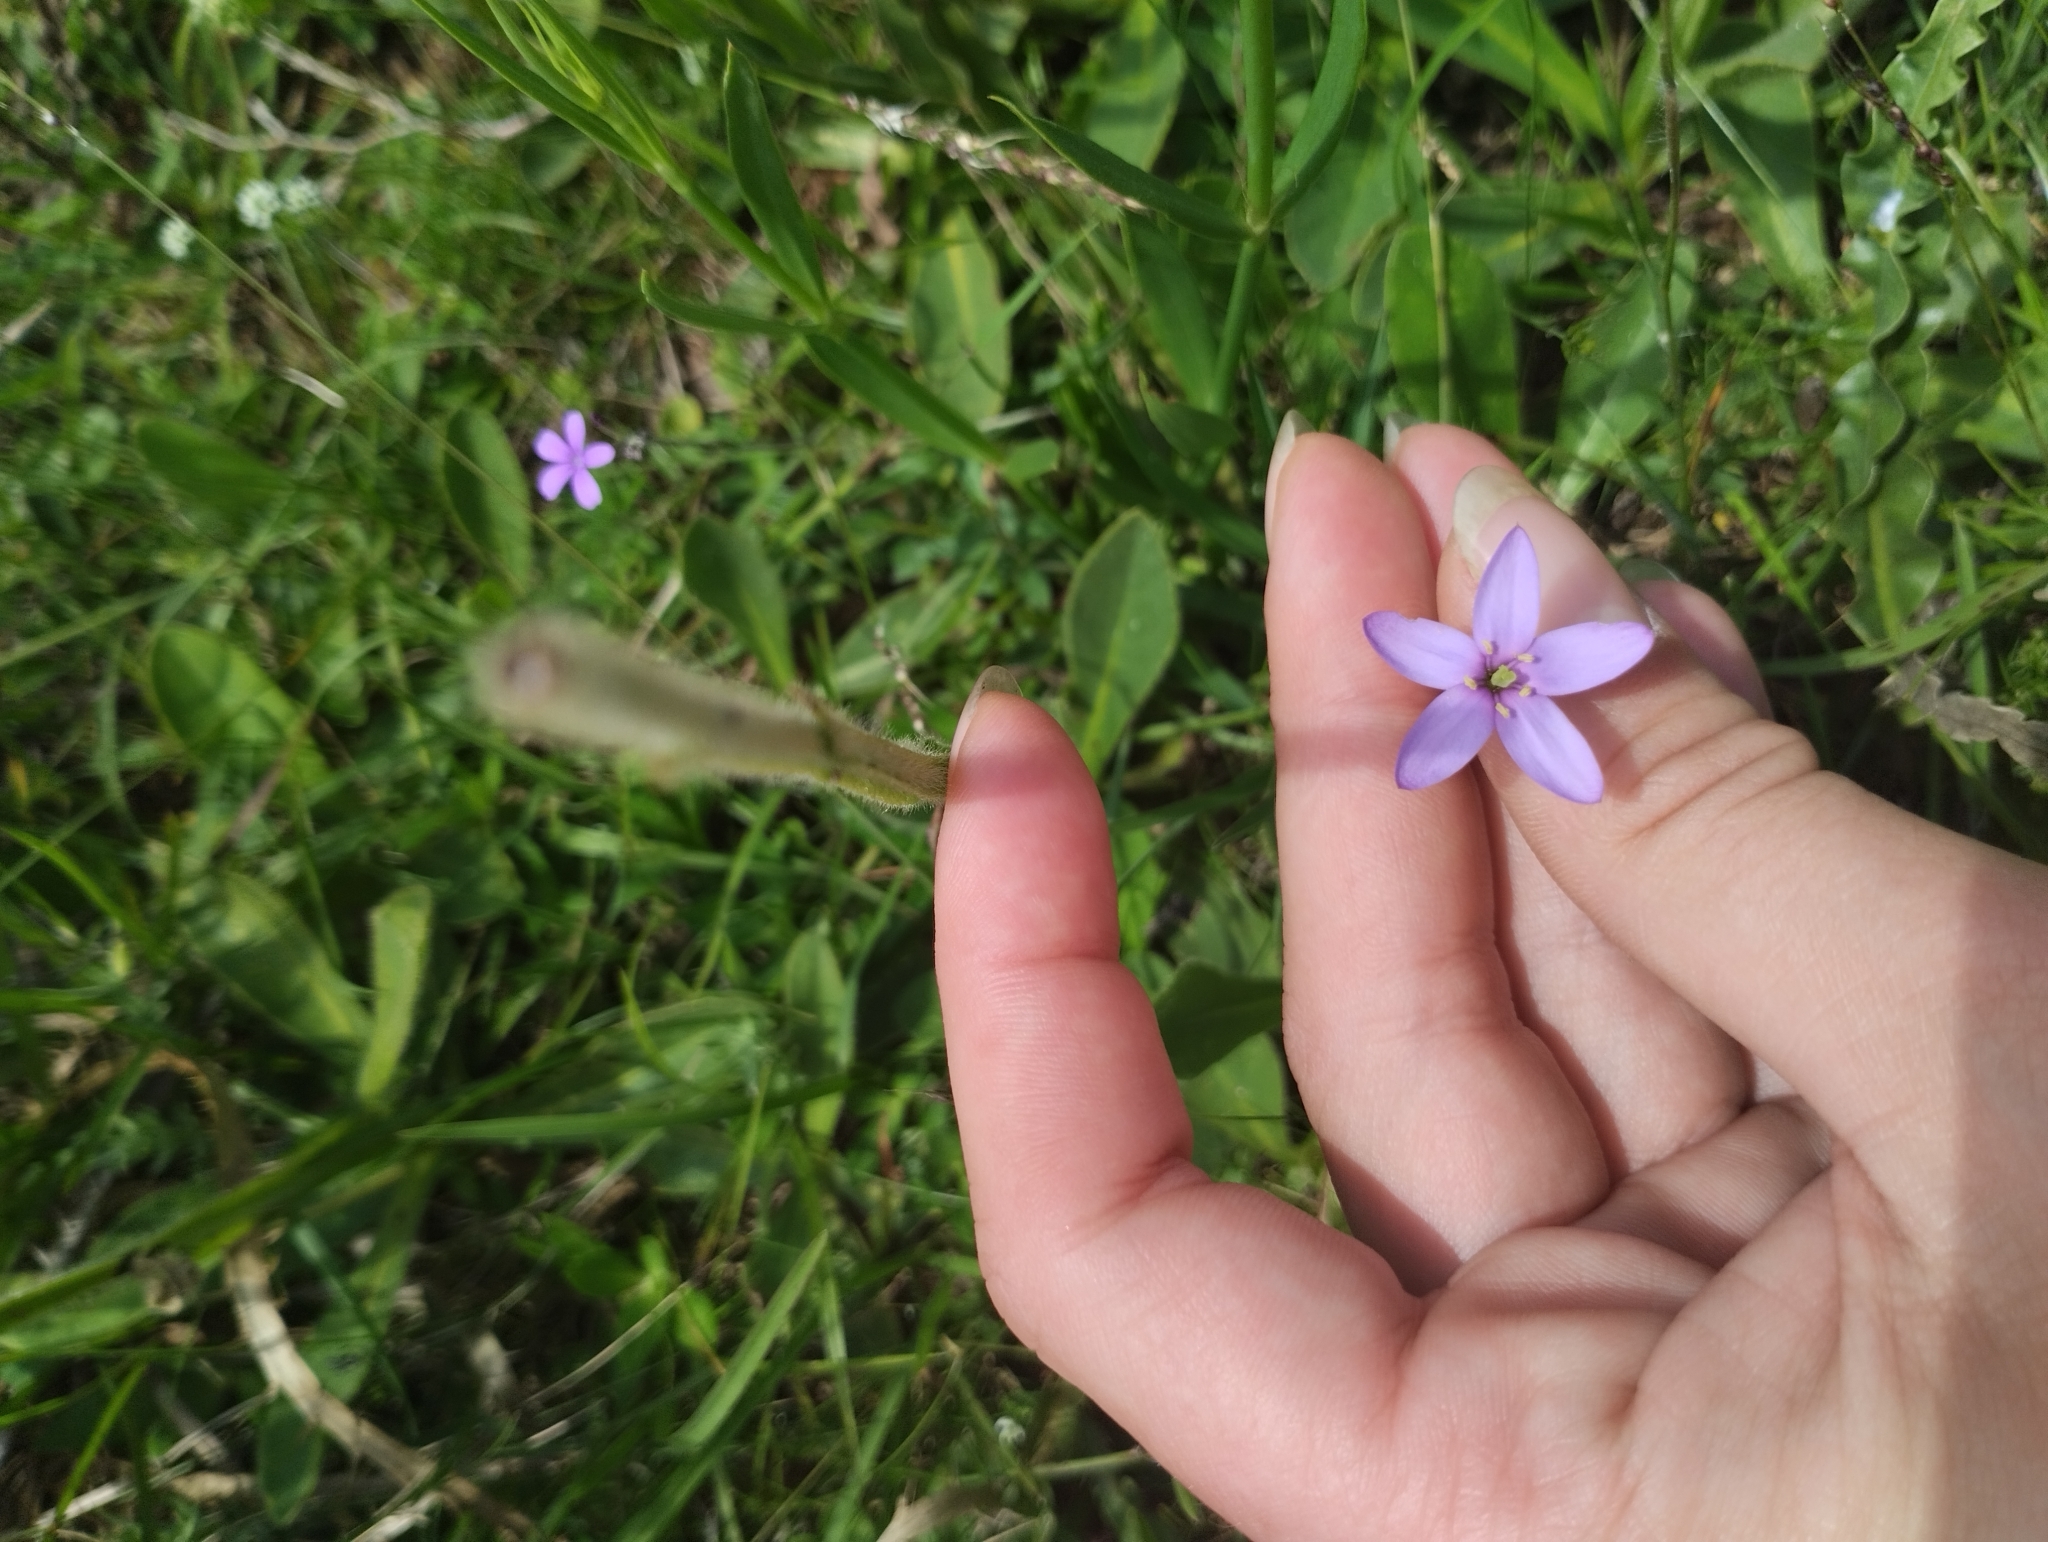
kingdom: Plantae
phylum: Tracheophyta
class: Magnoliopsida
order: Gentianales
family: Gentianaceae
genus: Zygostigma
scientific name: Zygostigma australe
